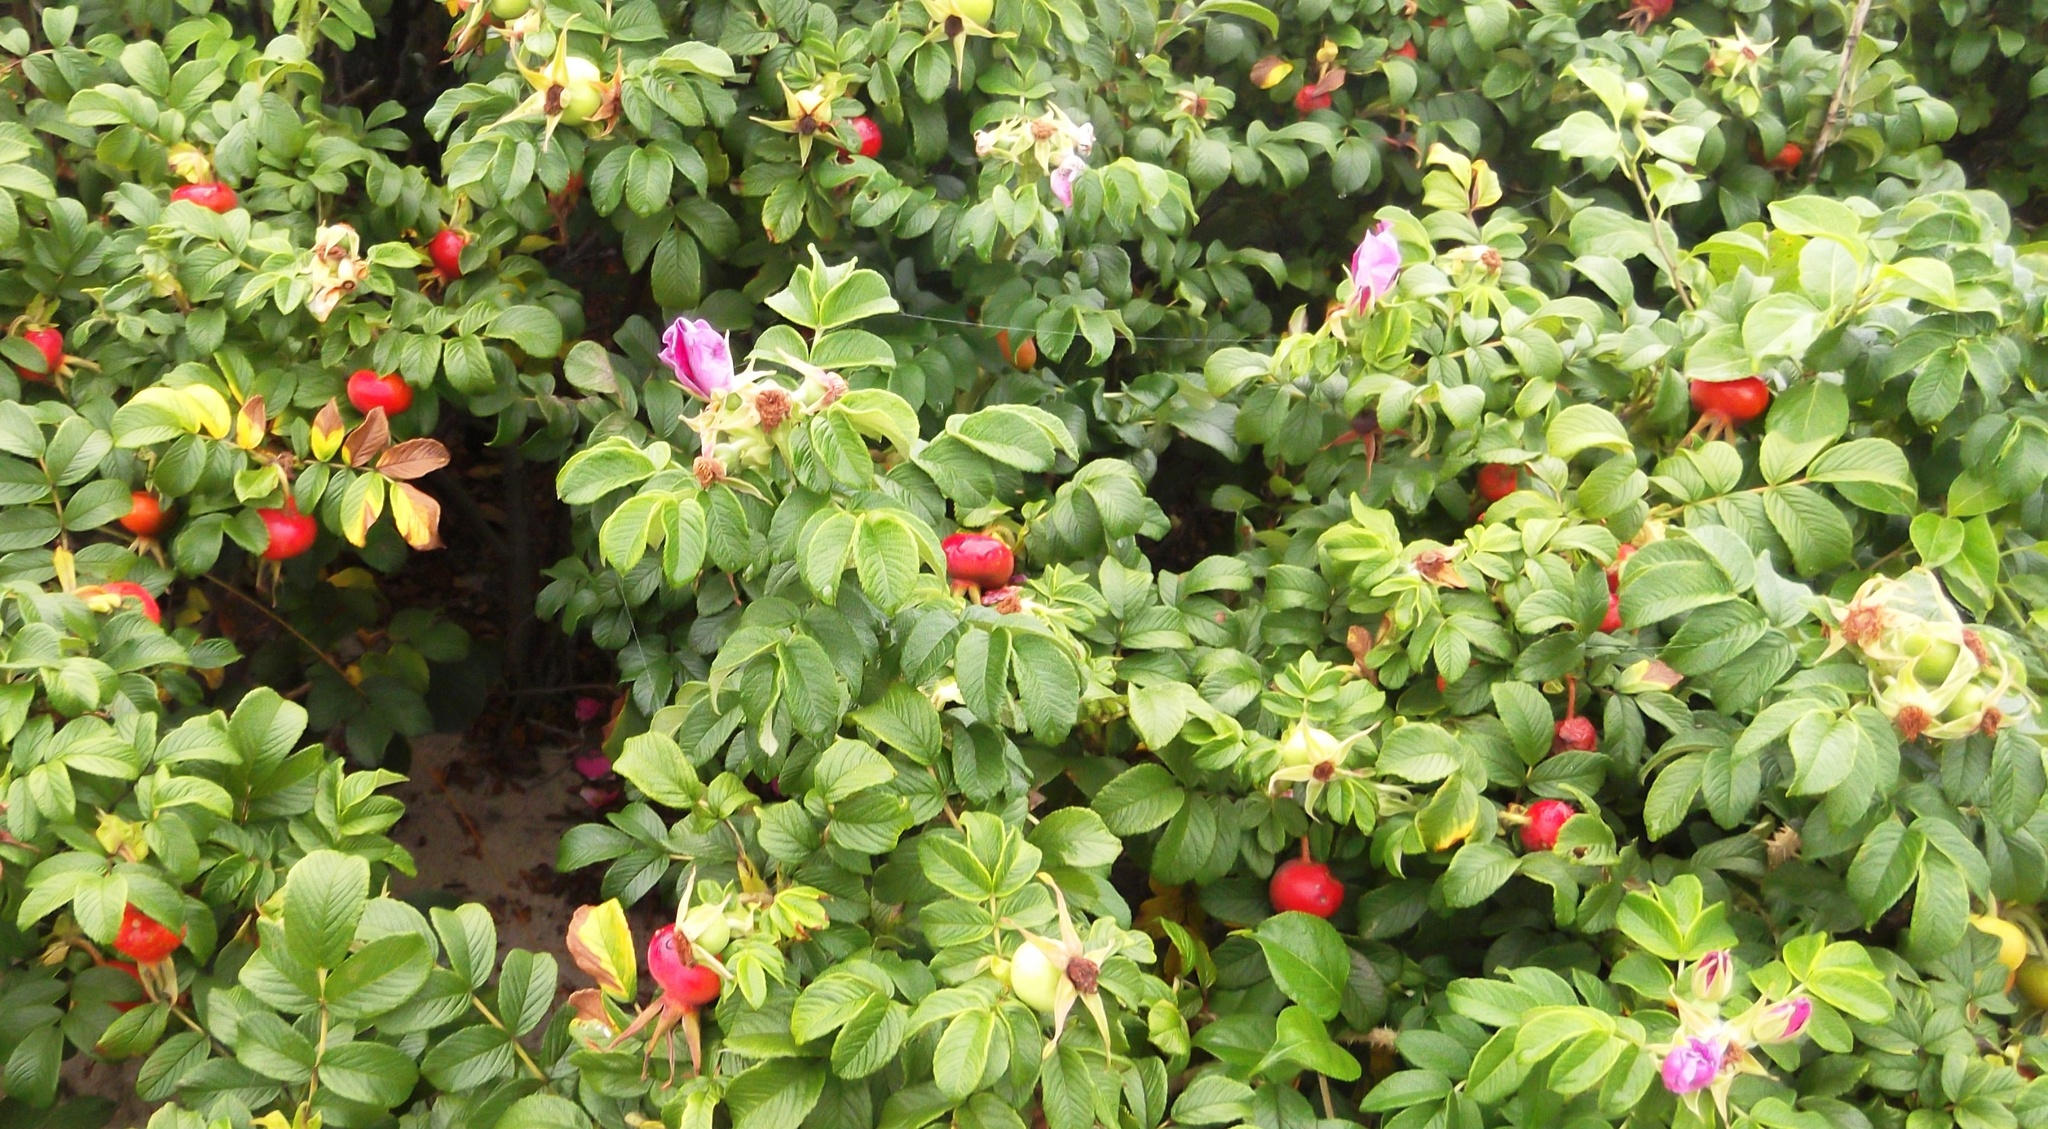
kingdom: Plantae
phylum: Tracheophyta
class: Magnoliopsida
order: Rosales
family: Rosaceae
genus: Rosa
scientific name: Rosa rugosa
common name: Japanese rose
